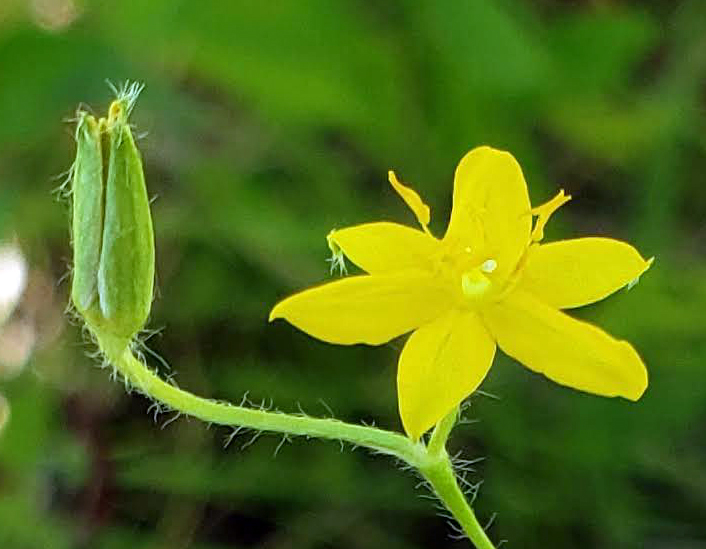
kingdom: Plantae
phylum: Tracheophyta
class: Liliopsida
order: Asparagales
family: Hypoxidaceae
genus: Hypoxis
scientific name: Hypoxis hirsuta
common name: Common goldstar
